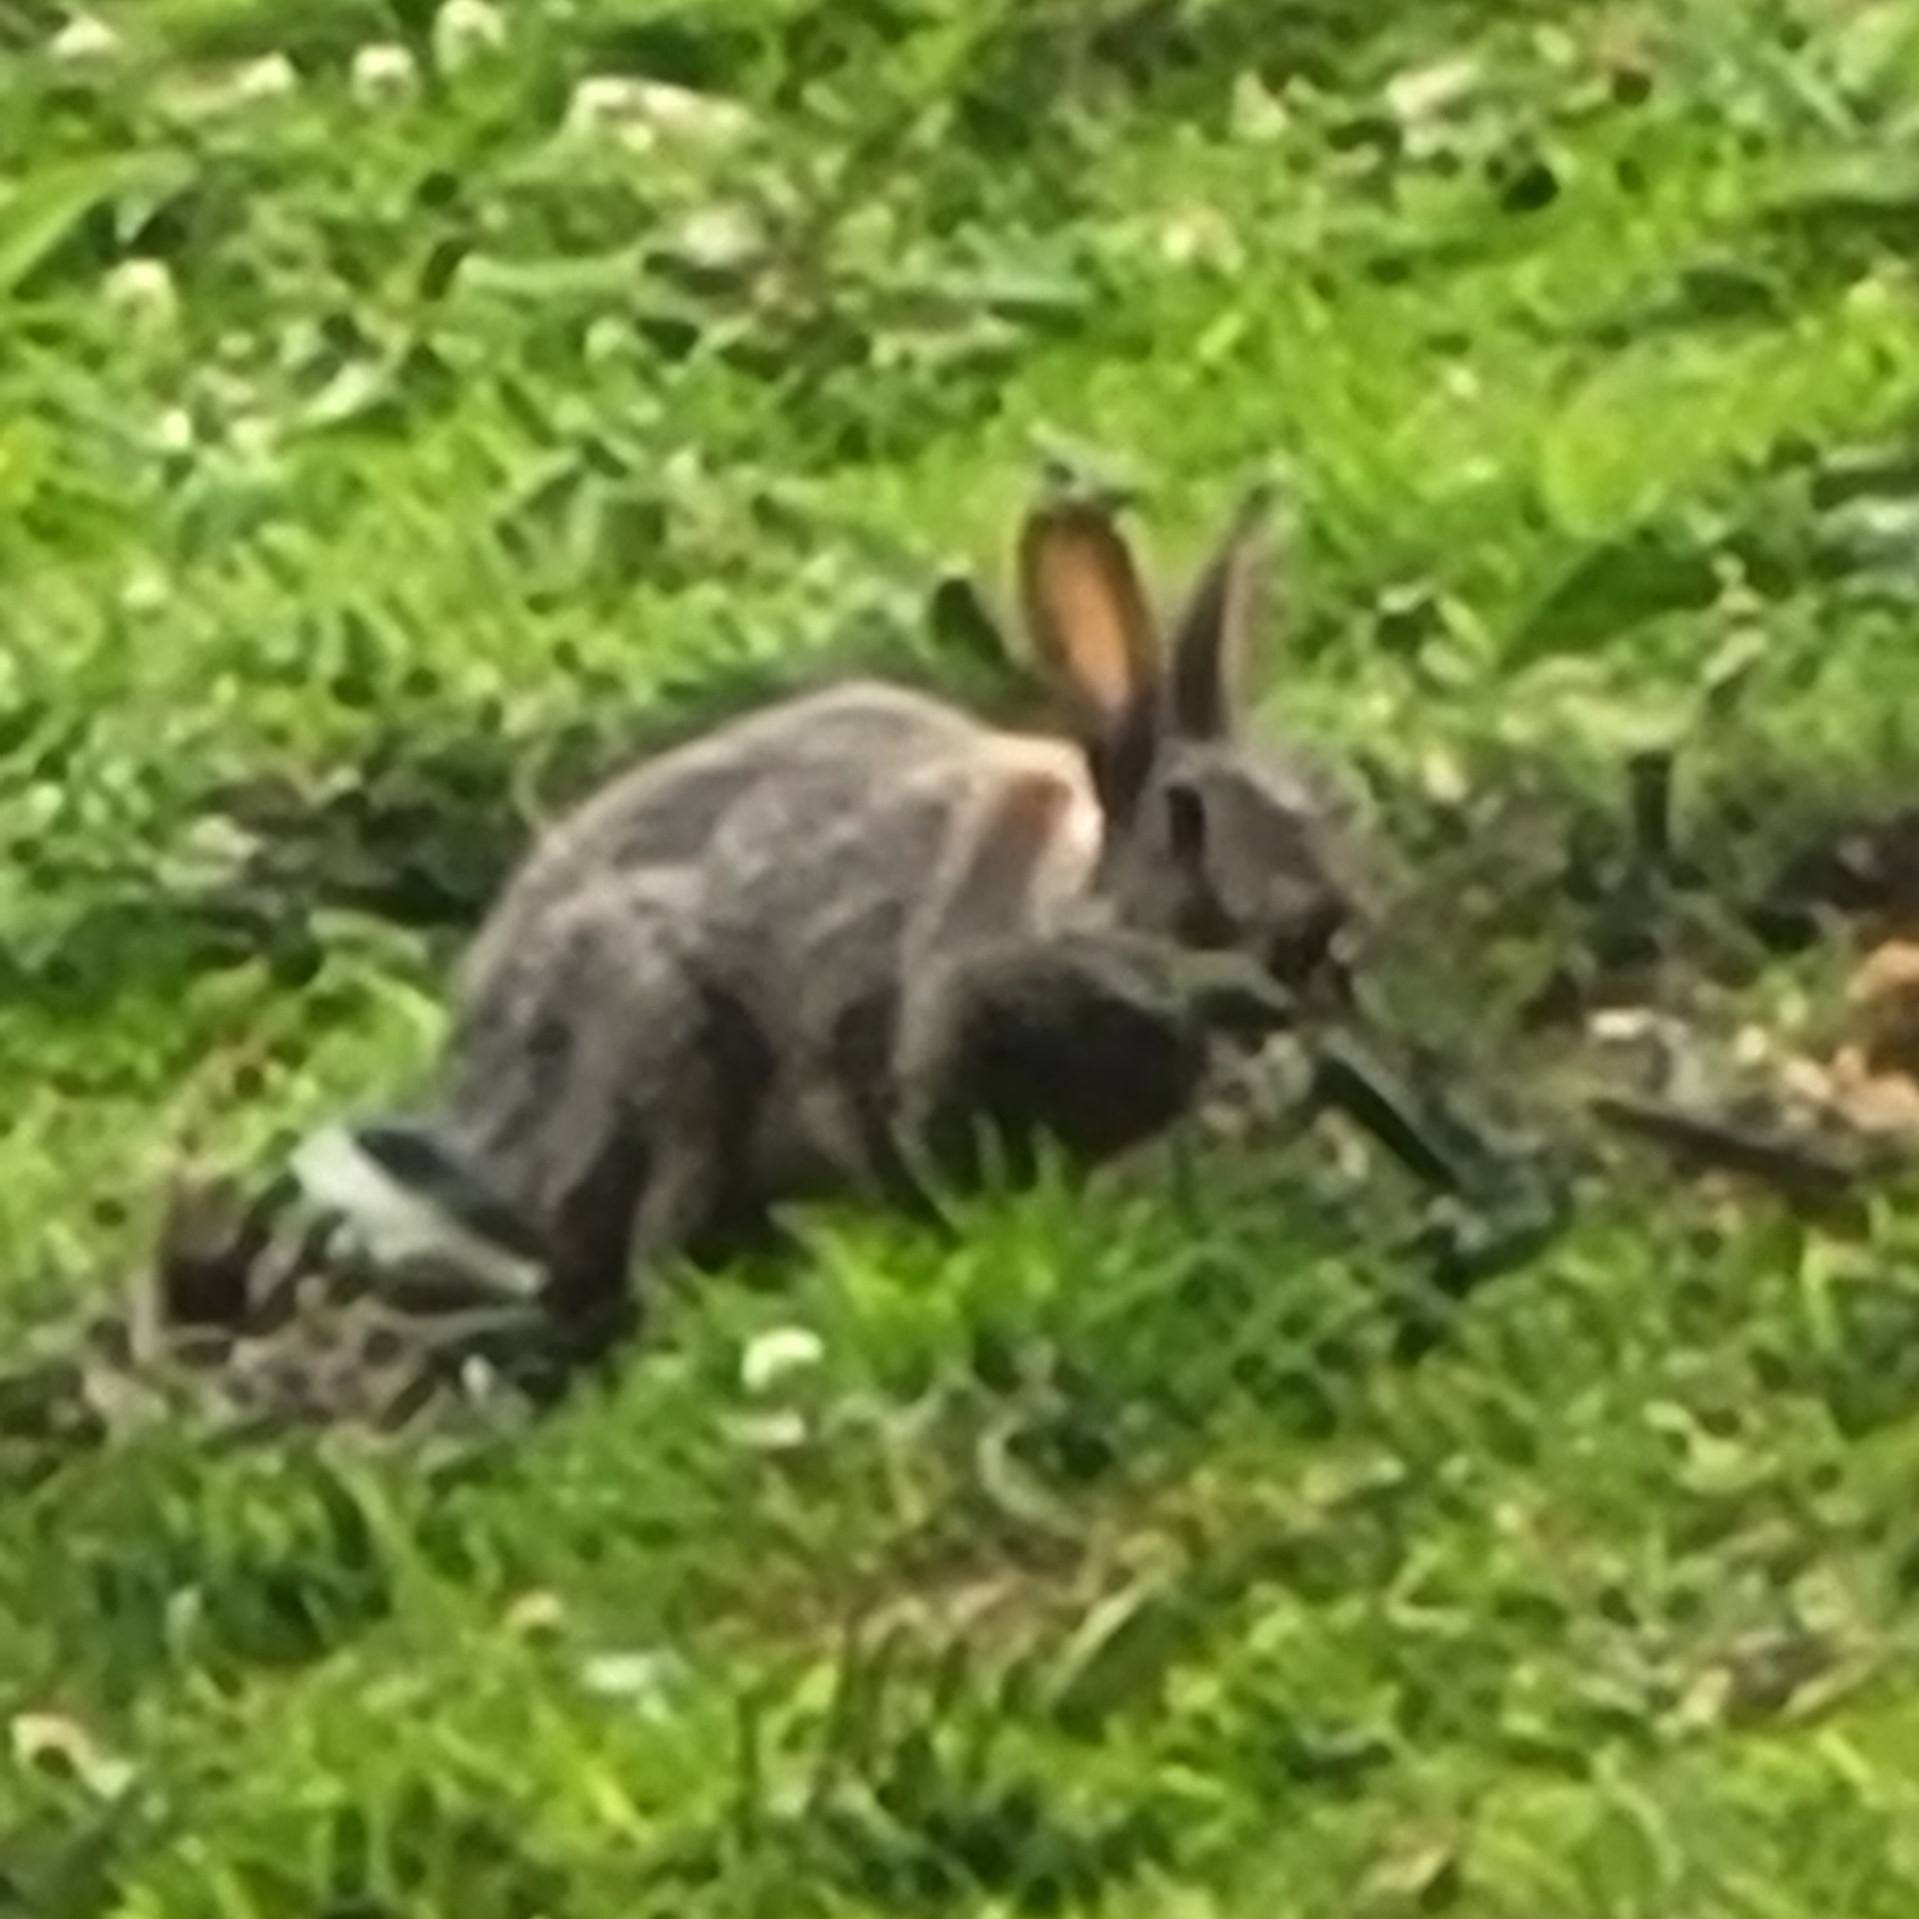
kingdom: Animalia
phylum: Chordata
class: Mammalia
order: Lagomorpha
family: Leporidae
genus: Oryctolagus
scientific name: Oryctolagus cuniculus
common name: European rabbit
